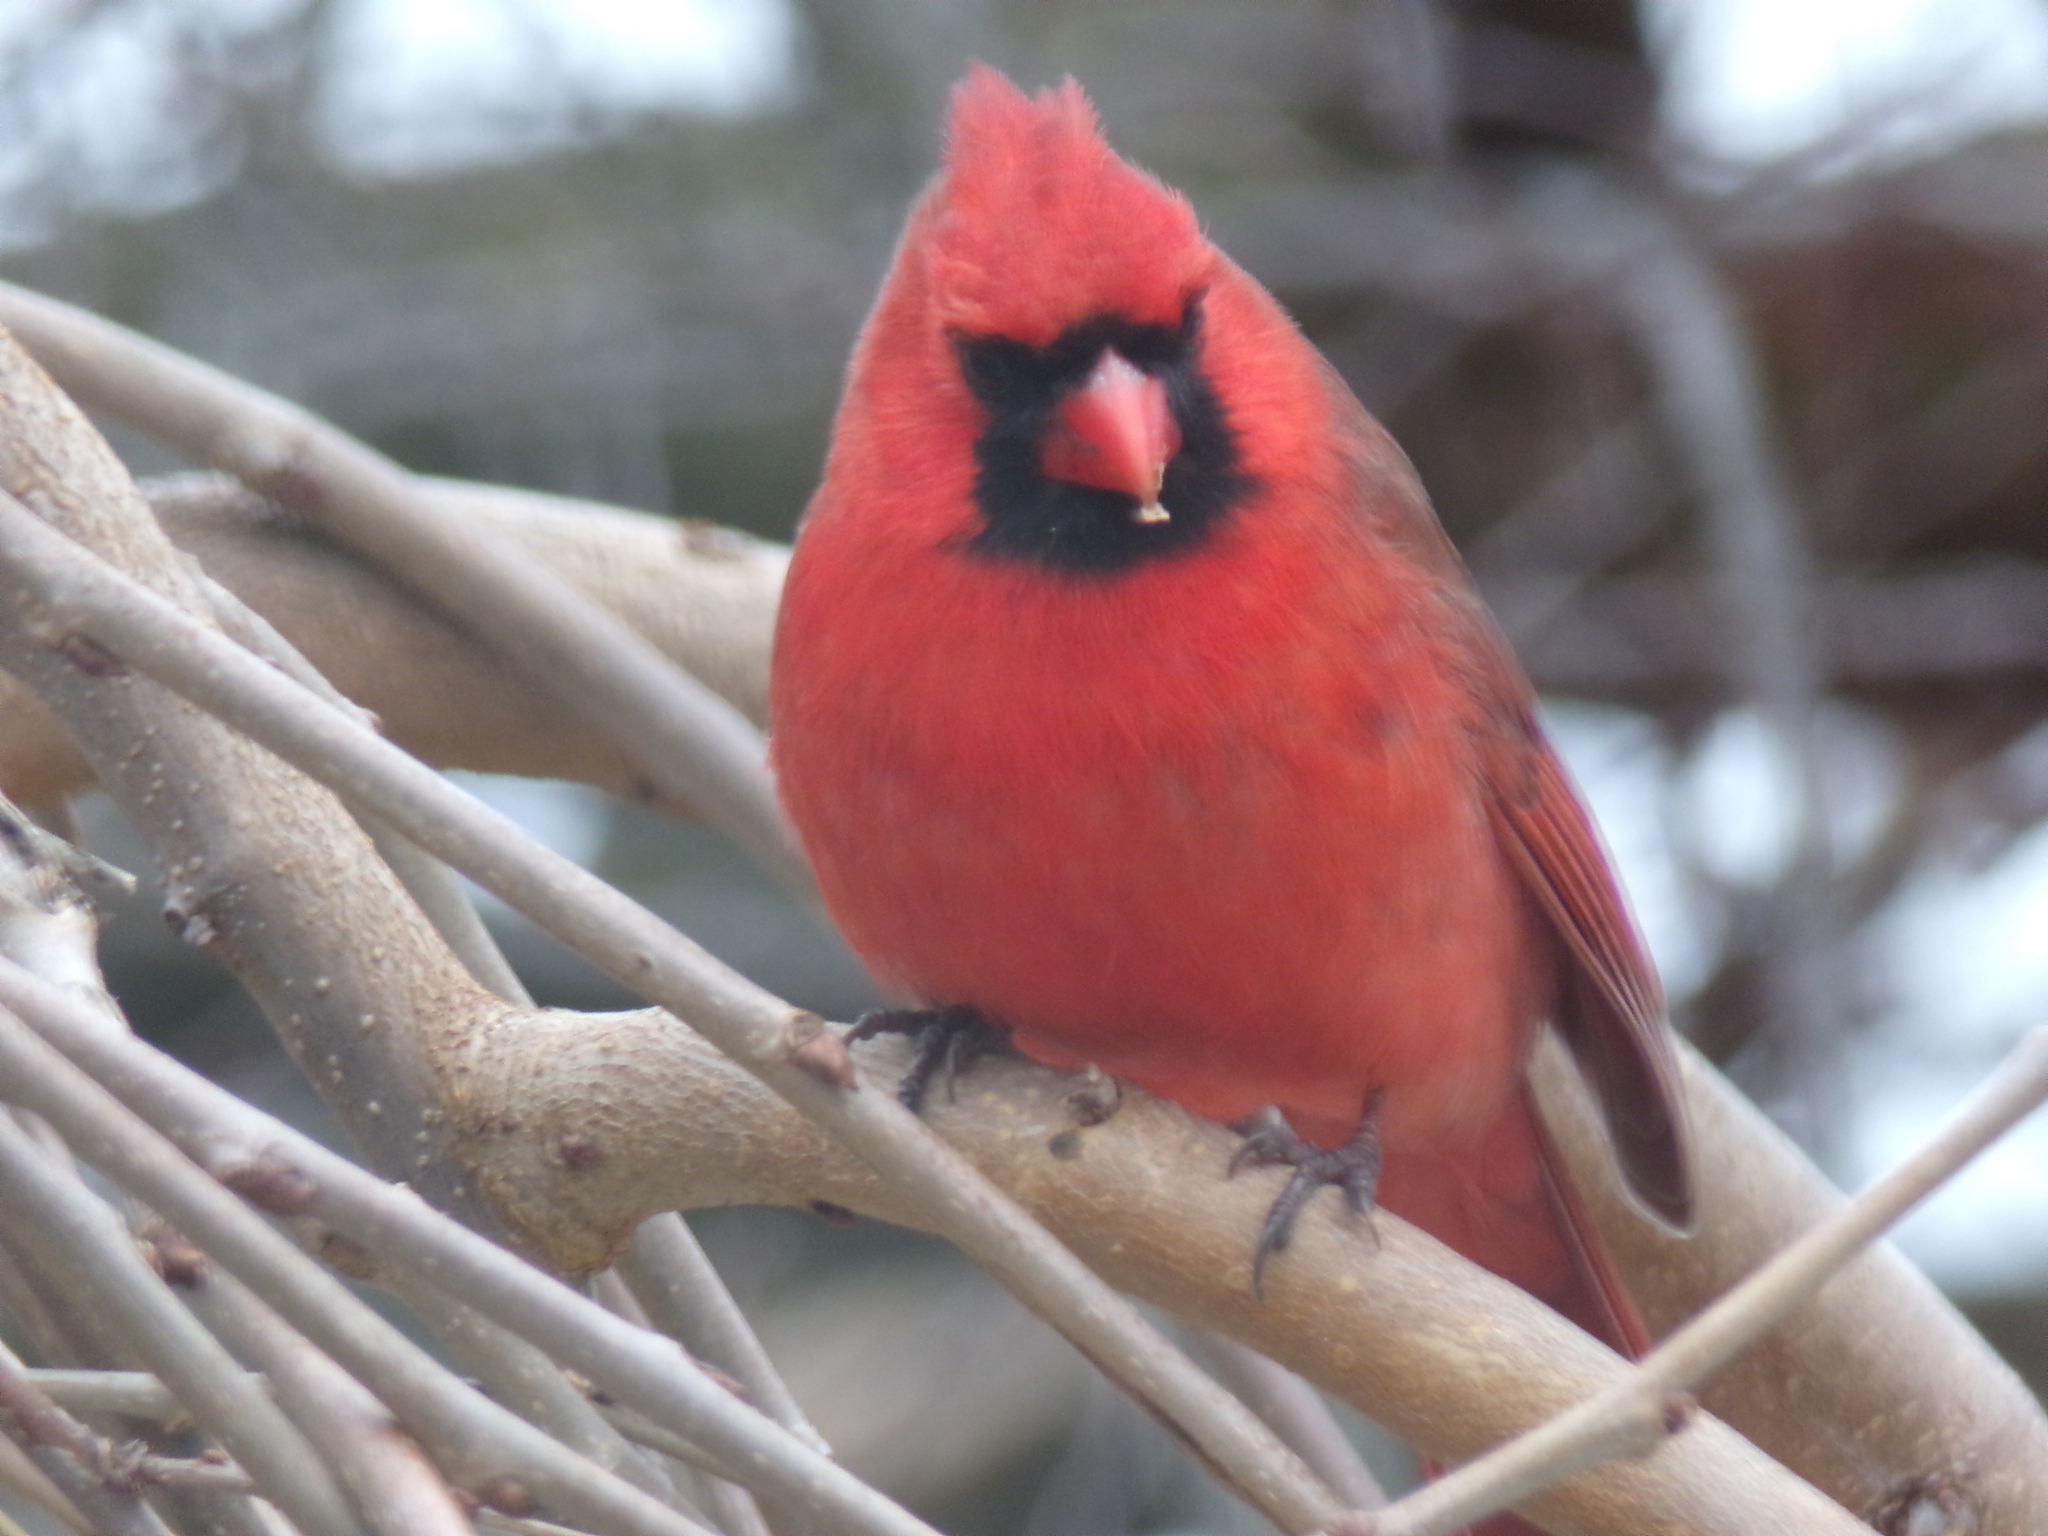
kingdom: Animalia
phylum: Chordata
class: Aves
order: Passeriformes
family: Cardinalidae
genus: Cardinalis
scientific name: Cardinalis cardinalis
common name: Northern cardinal
